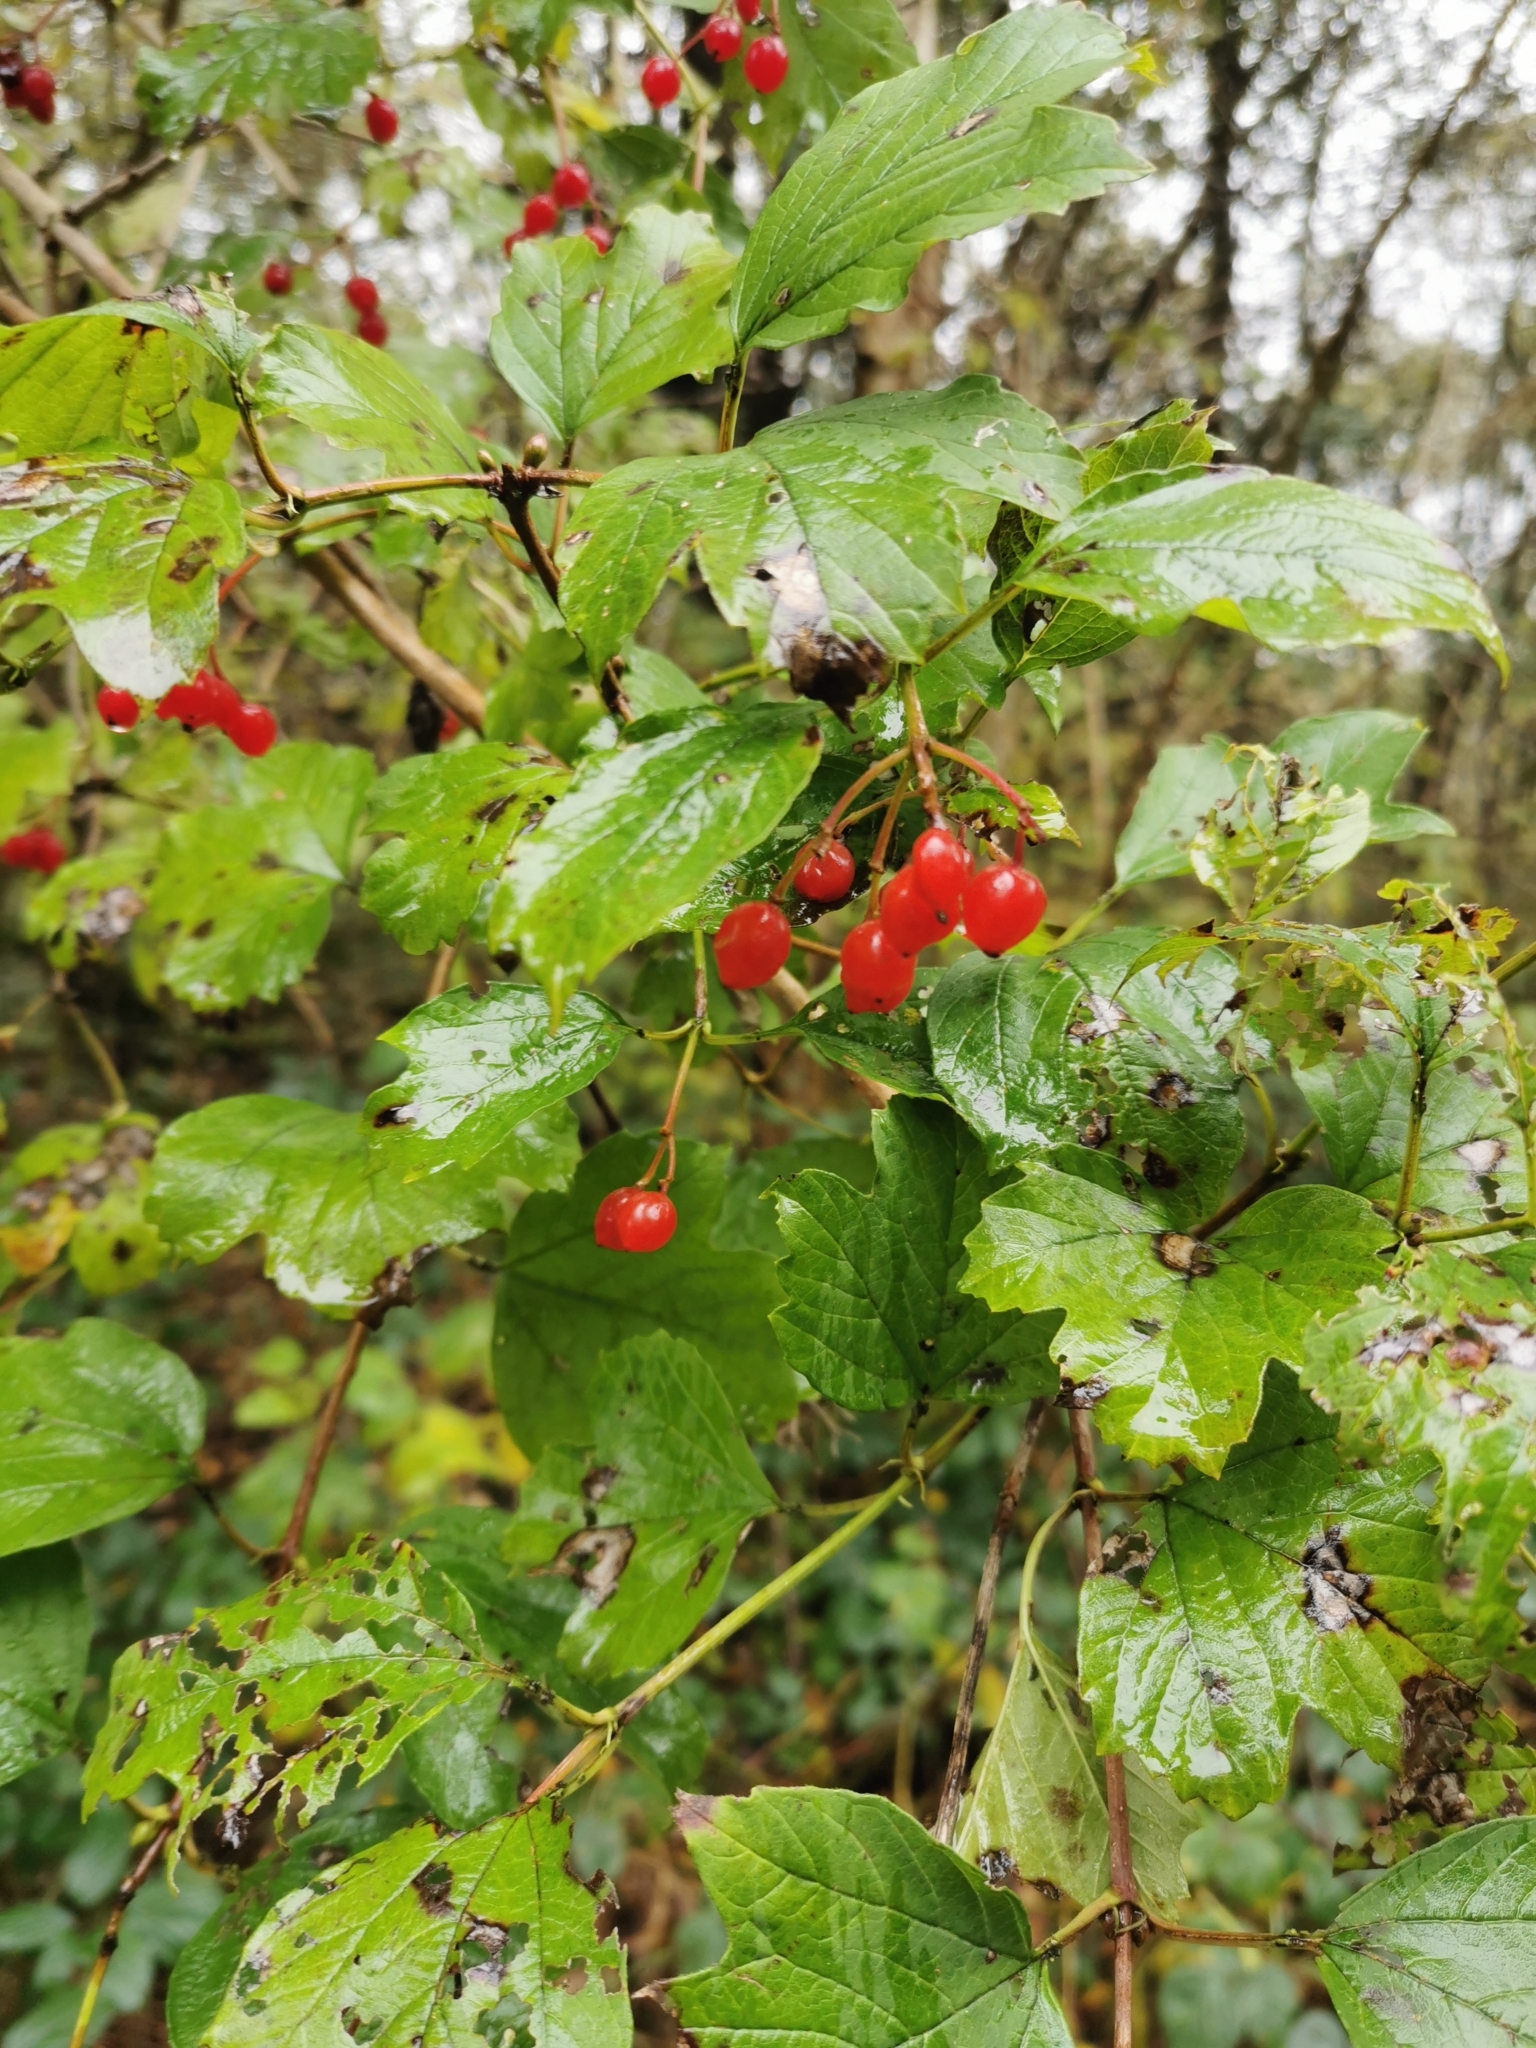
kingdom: Plantae
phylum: Tracheophyta
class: Magnoliopsida
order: Dipsacales
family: Viburnaceae
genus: Viburnum
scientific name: Viburnum opulus
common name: Guelder-rose
